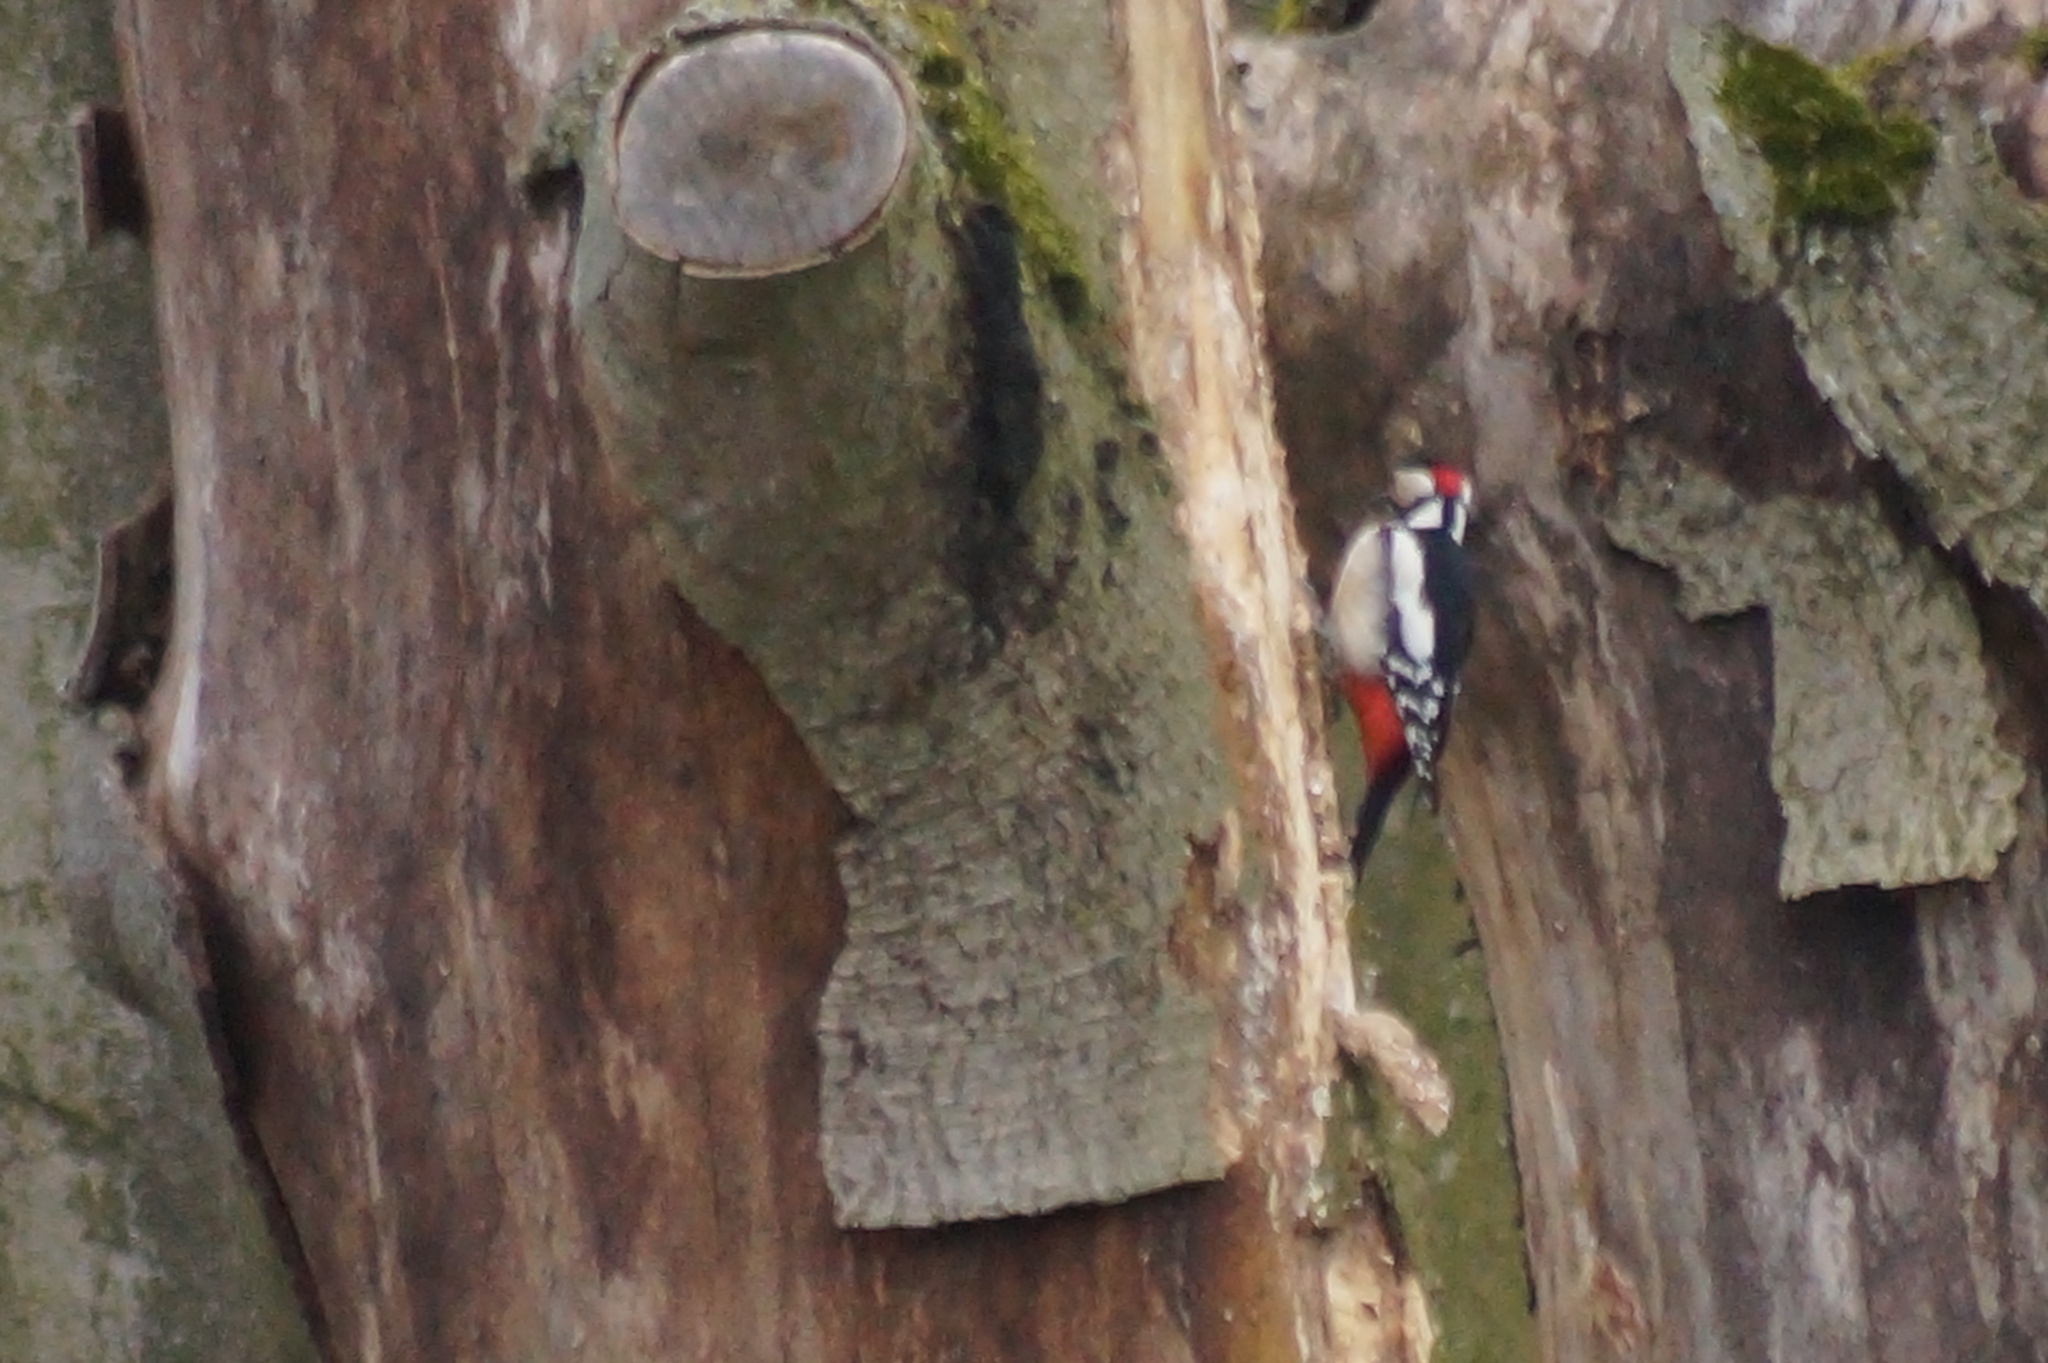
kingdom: Animalia
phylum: Chordata
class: Aves
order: Piciformes
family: Picidae
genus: Dendrocopos
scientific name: Dendrocopos major
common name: Great spotted woodpecker
